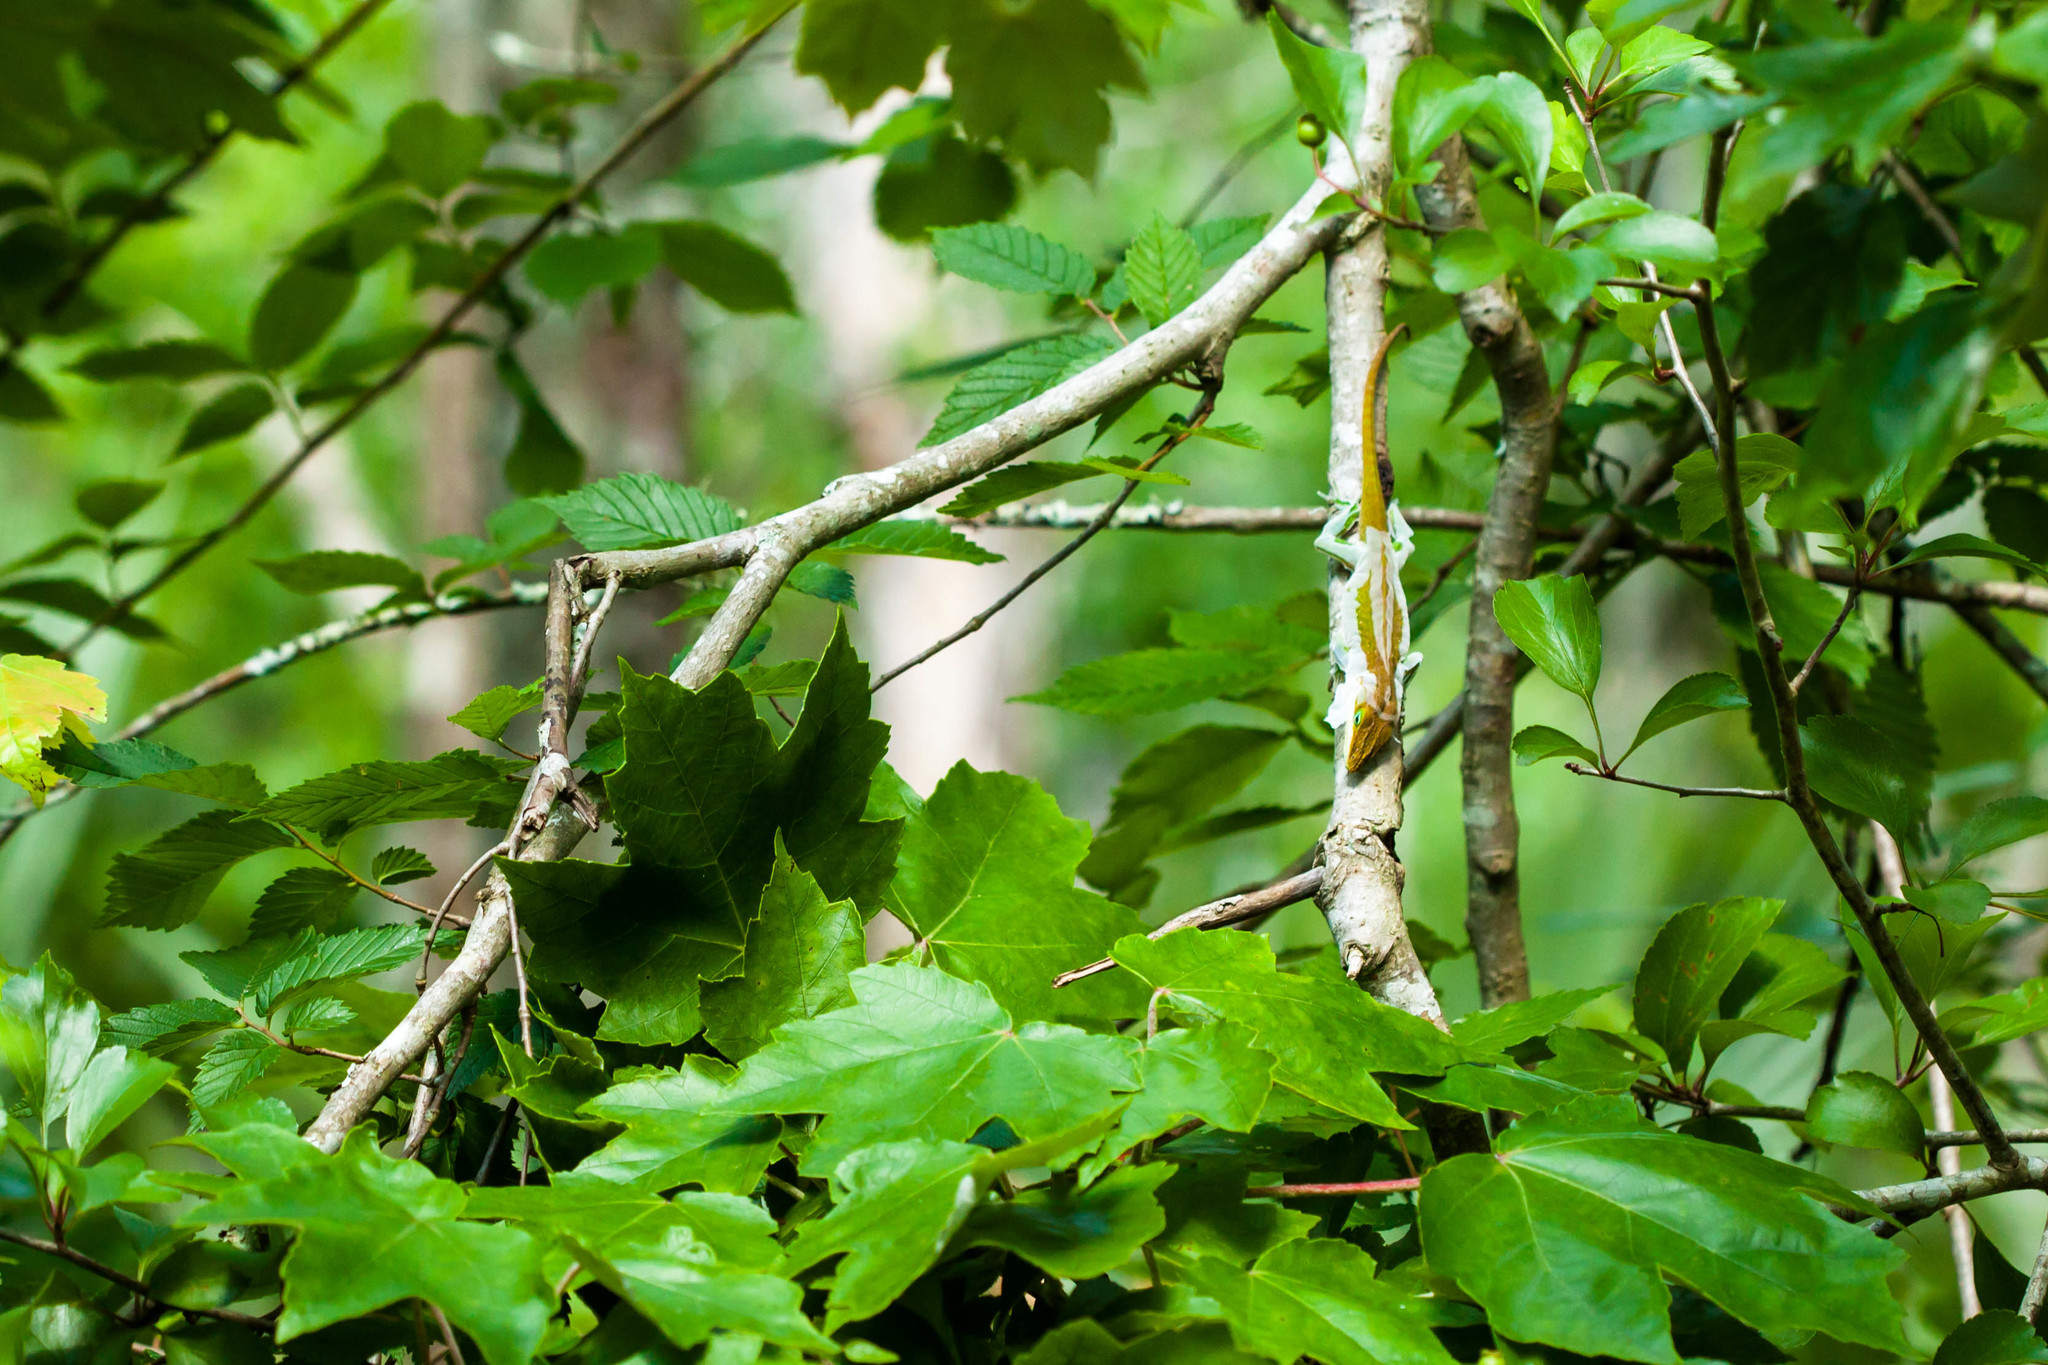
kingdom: Animalia
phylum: Chordata
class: Squamata
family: Dactyloidae
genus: Anolis
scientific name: Anolis carolinensis
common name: Green anole
